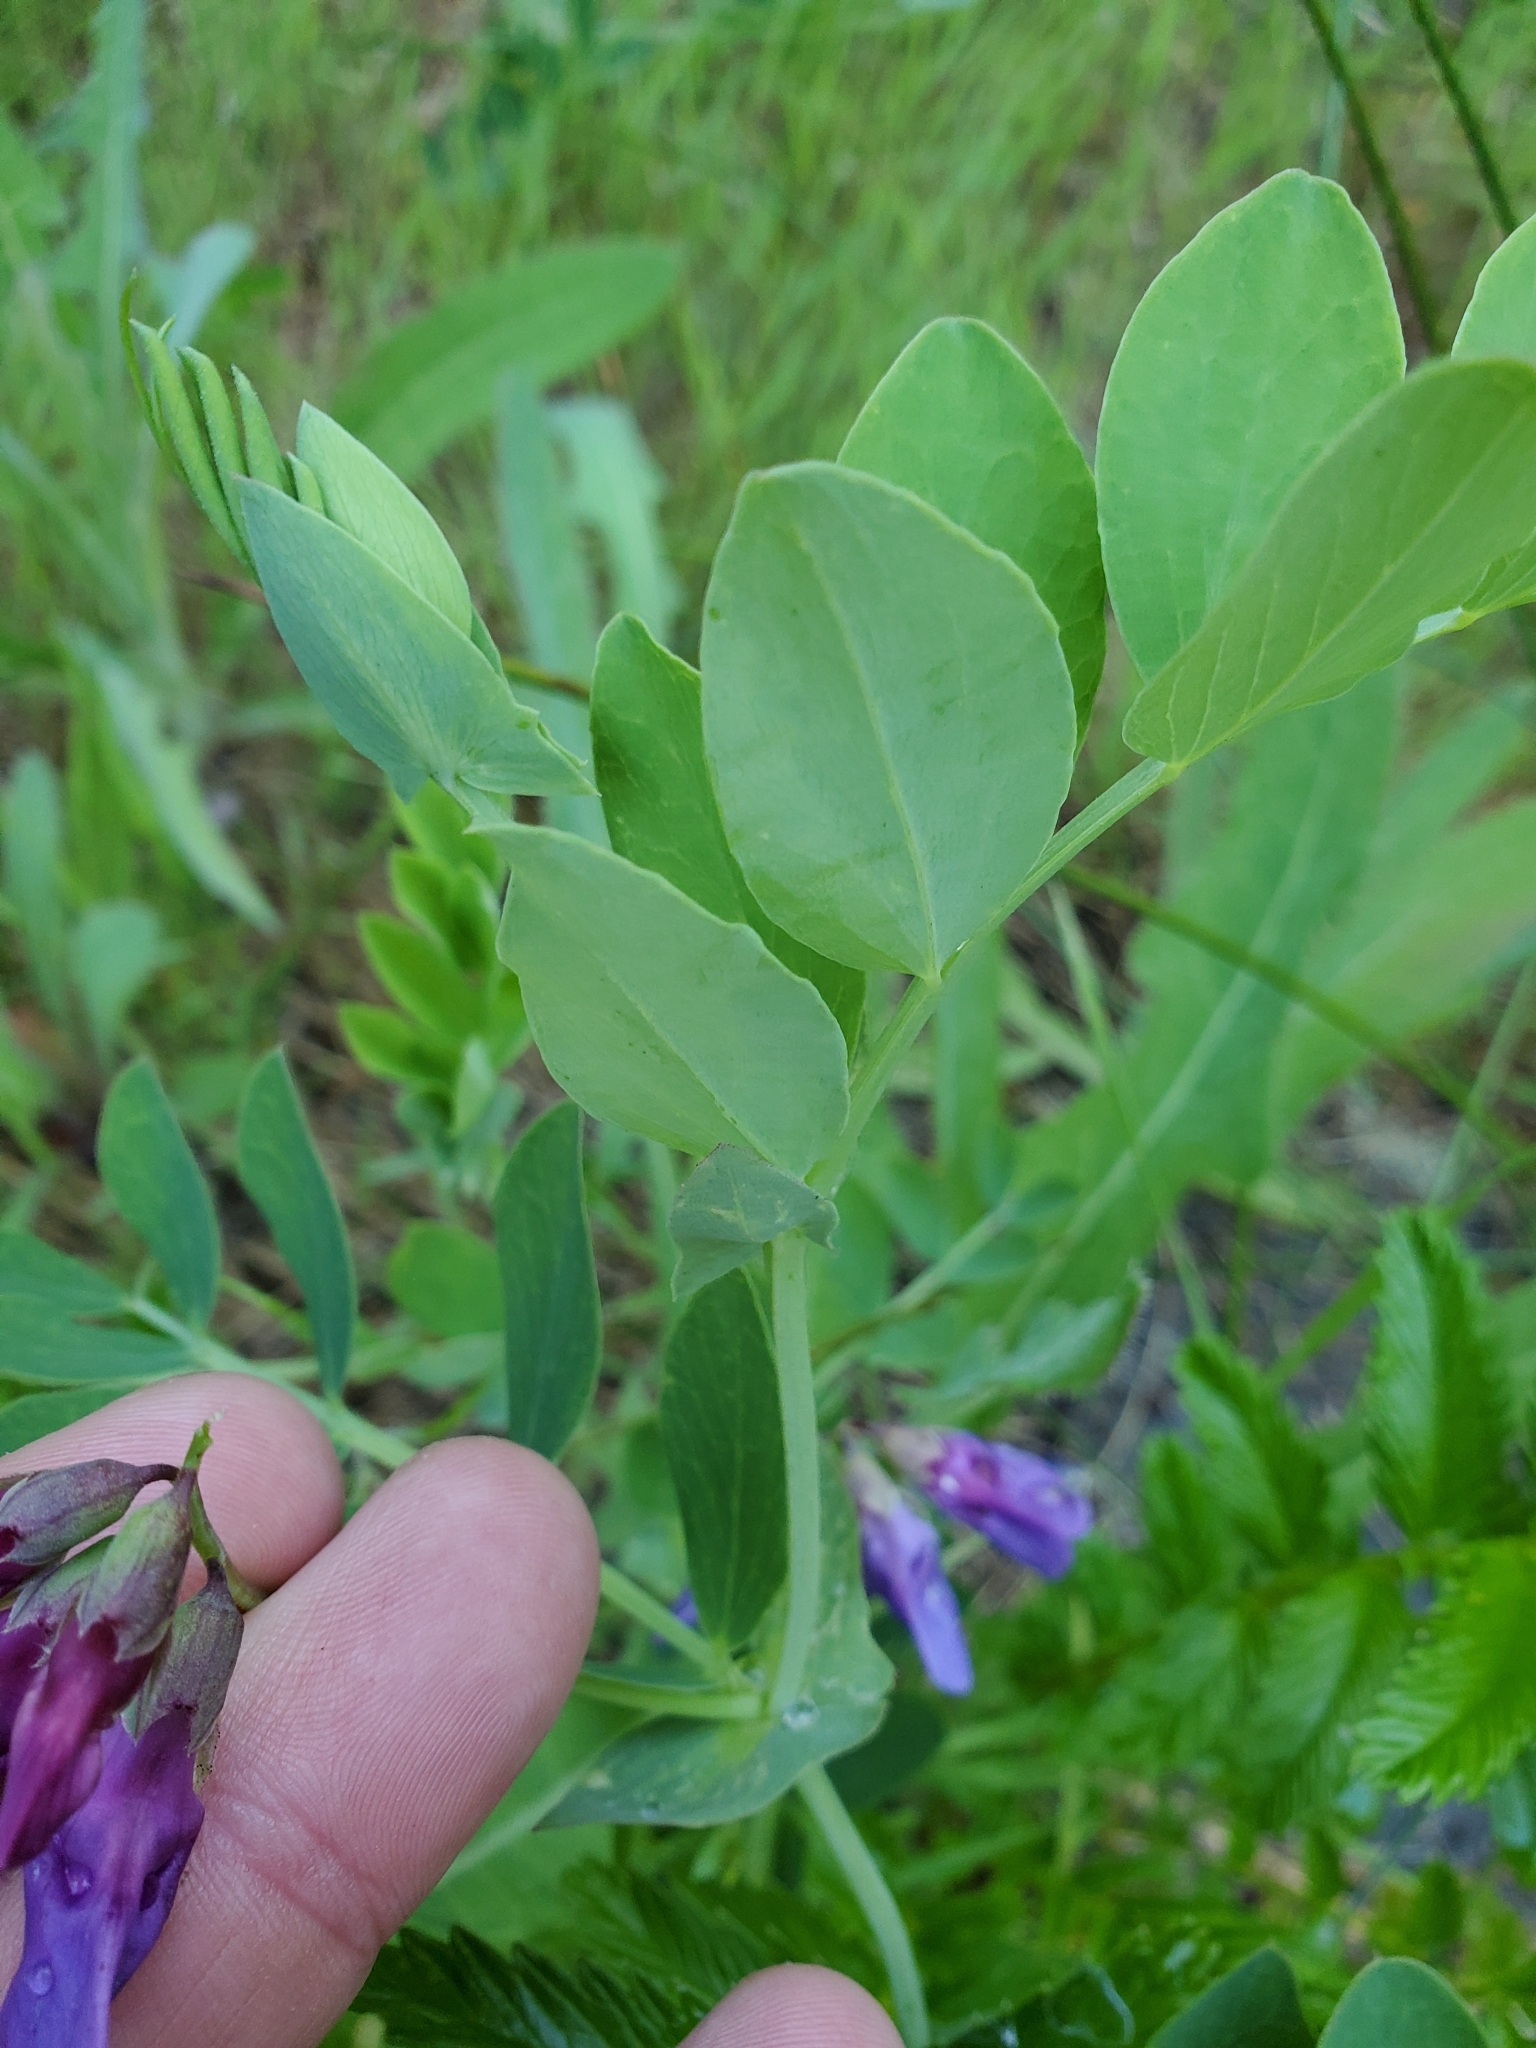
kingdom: Plantae
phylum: Tracheophyta
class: Magnoliopsida
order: Fabales
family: Fabaceae
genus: Lathyrus
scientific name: Lathyrus japonicus
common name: Sea pea
